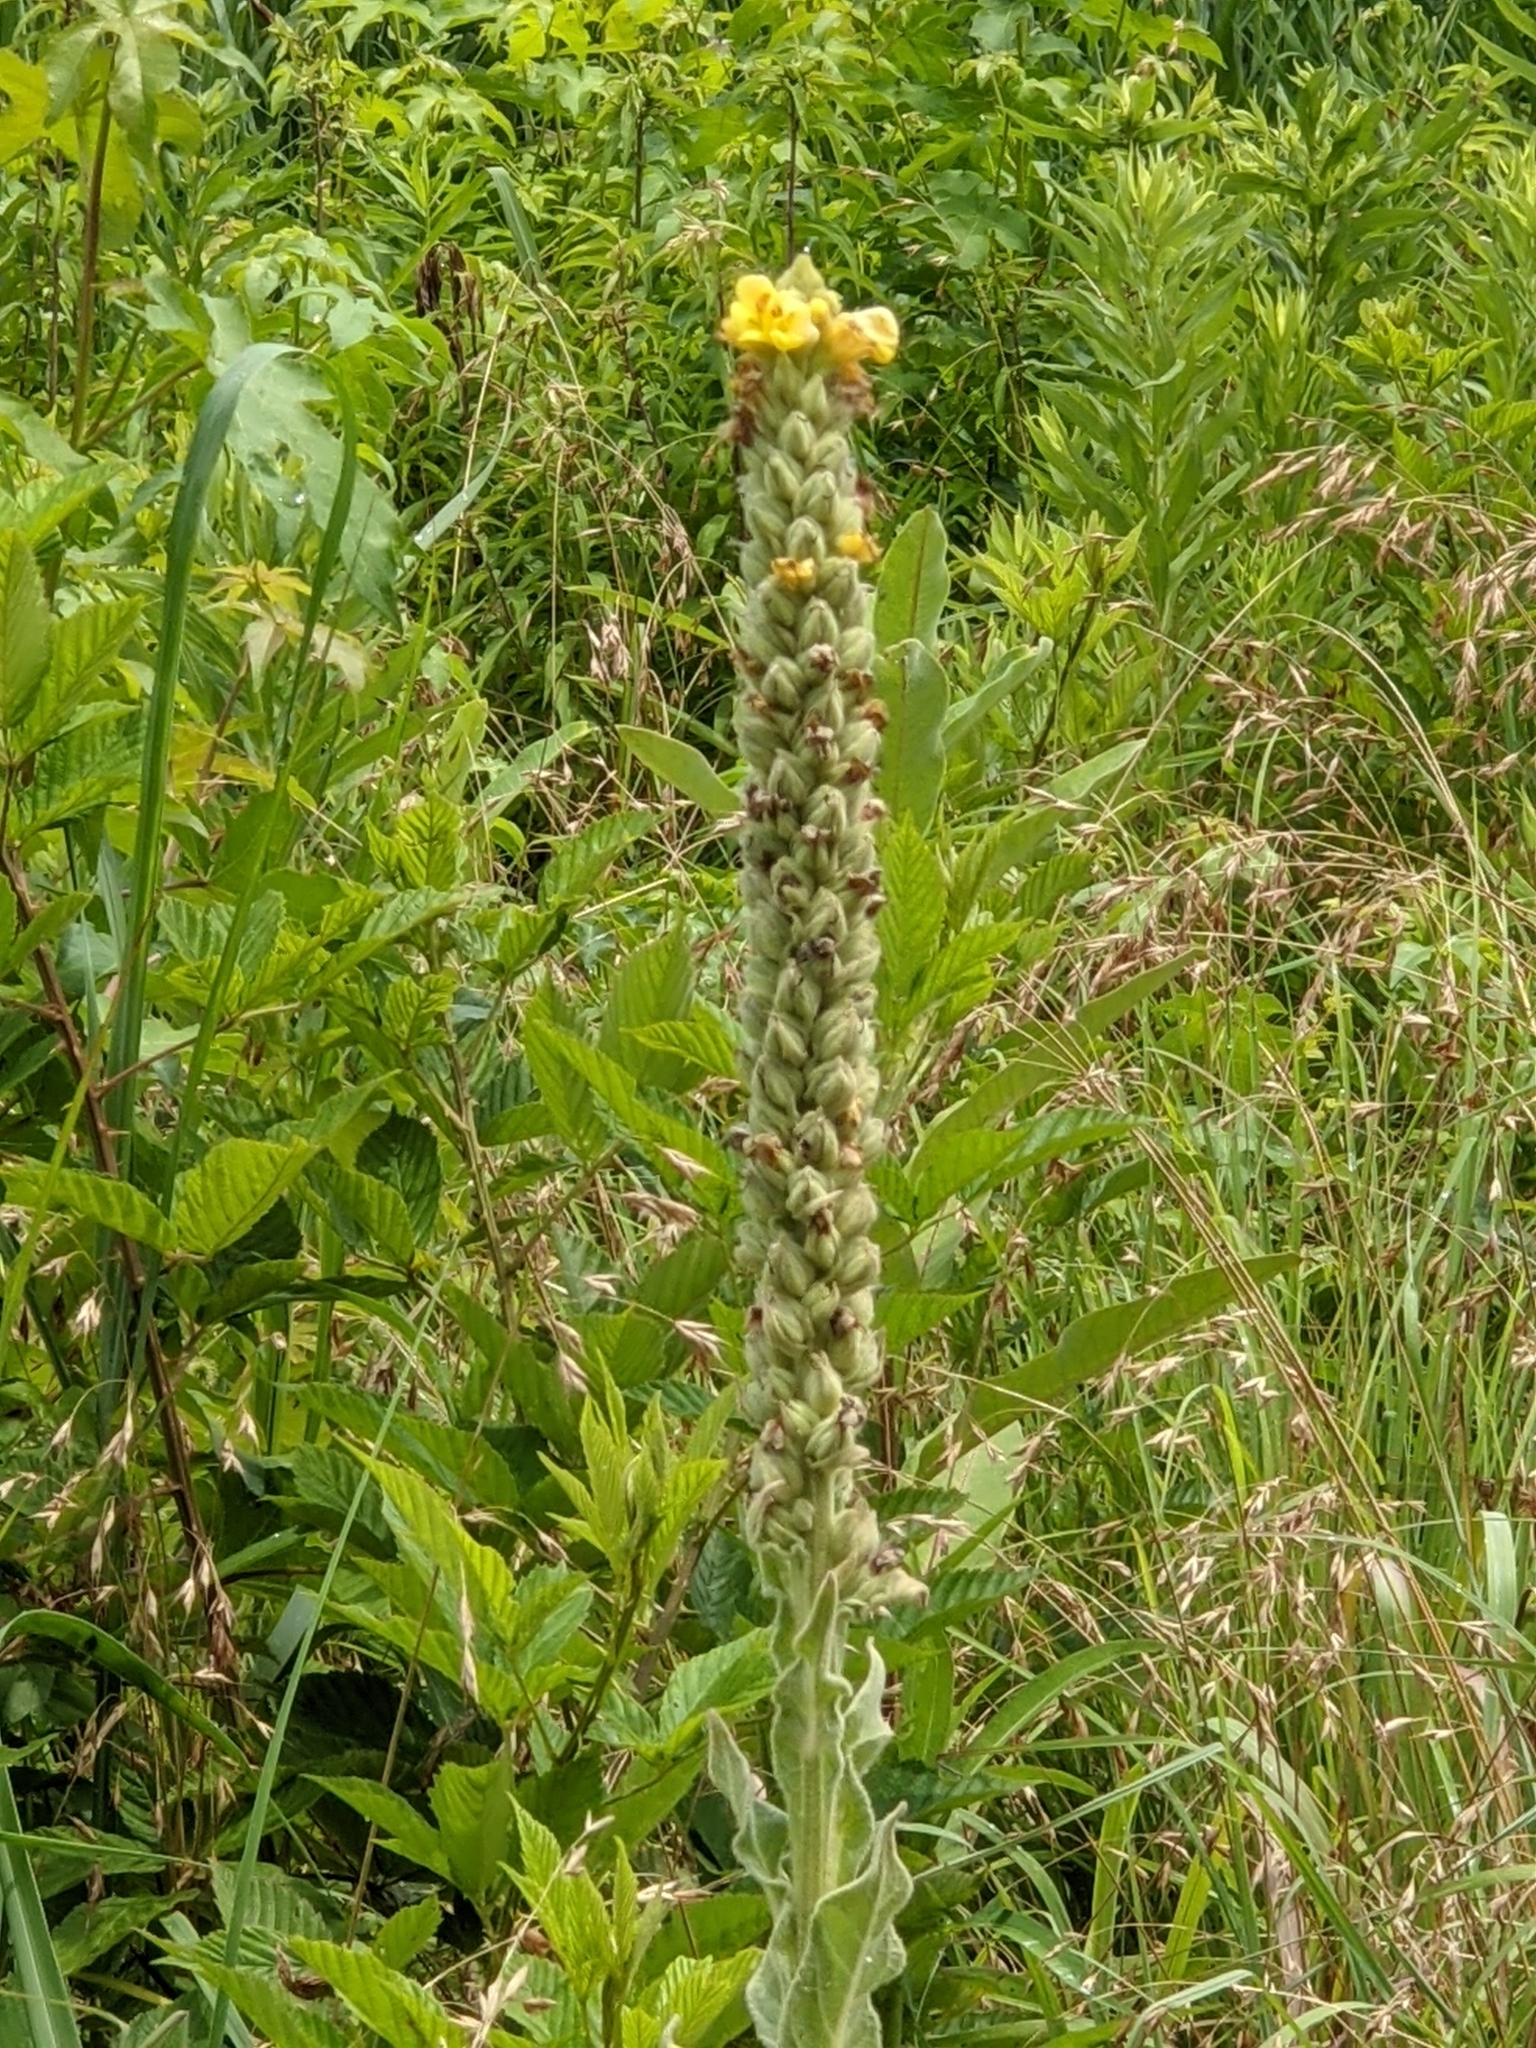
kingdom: Plantae
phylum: Tracheophyta
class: Magnoliopsida
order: Lamiales
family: Scrophulariaceae
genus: Verbascum
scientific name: Verbascum thapsus
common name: Common mullein
